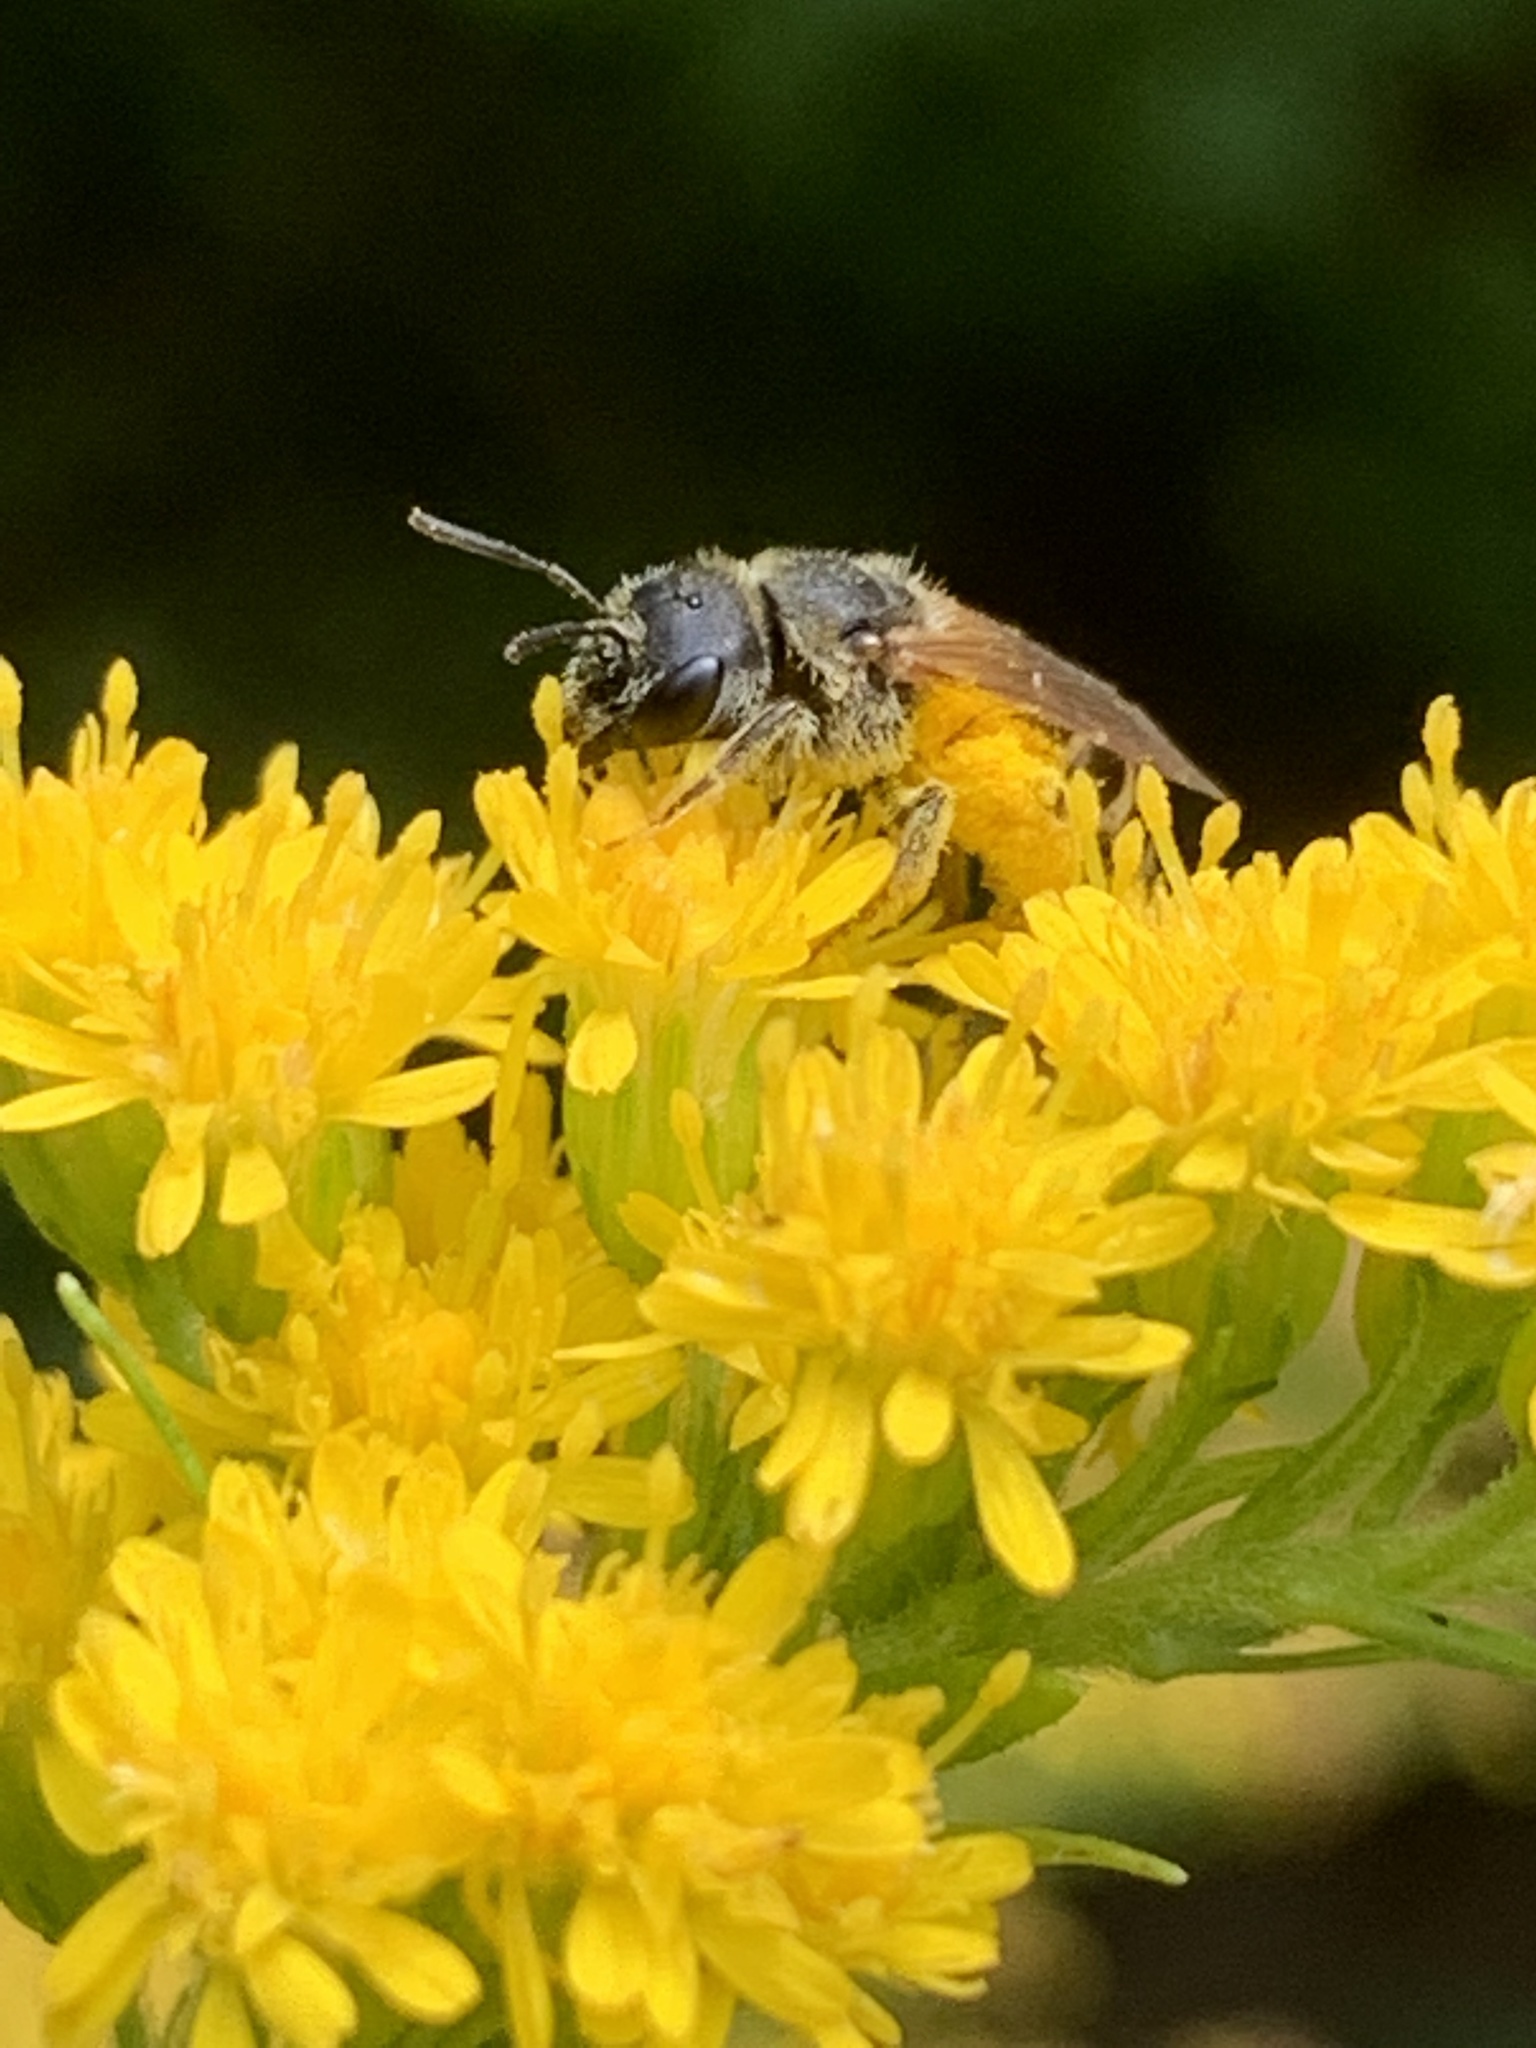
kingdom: Animalia
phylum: Arthropoda
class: Insecta
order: Hymenoptera
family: Halictidae
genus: Halictus
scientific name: Halictus ligatus
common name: Ligated furrow bee
